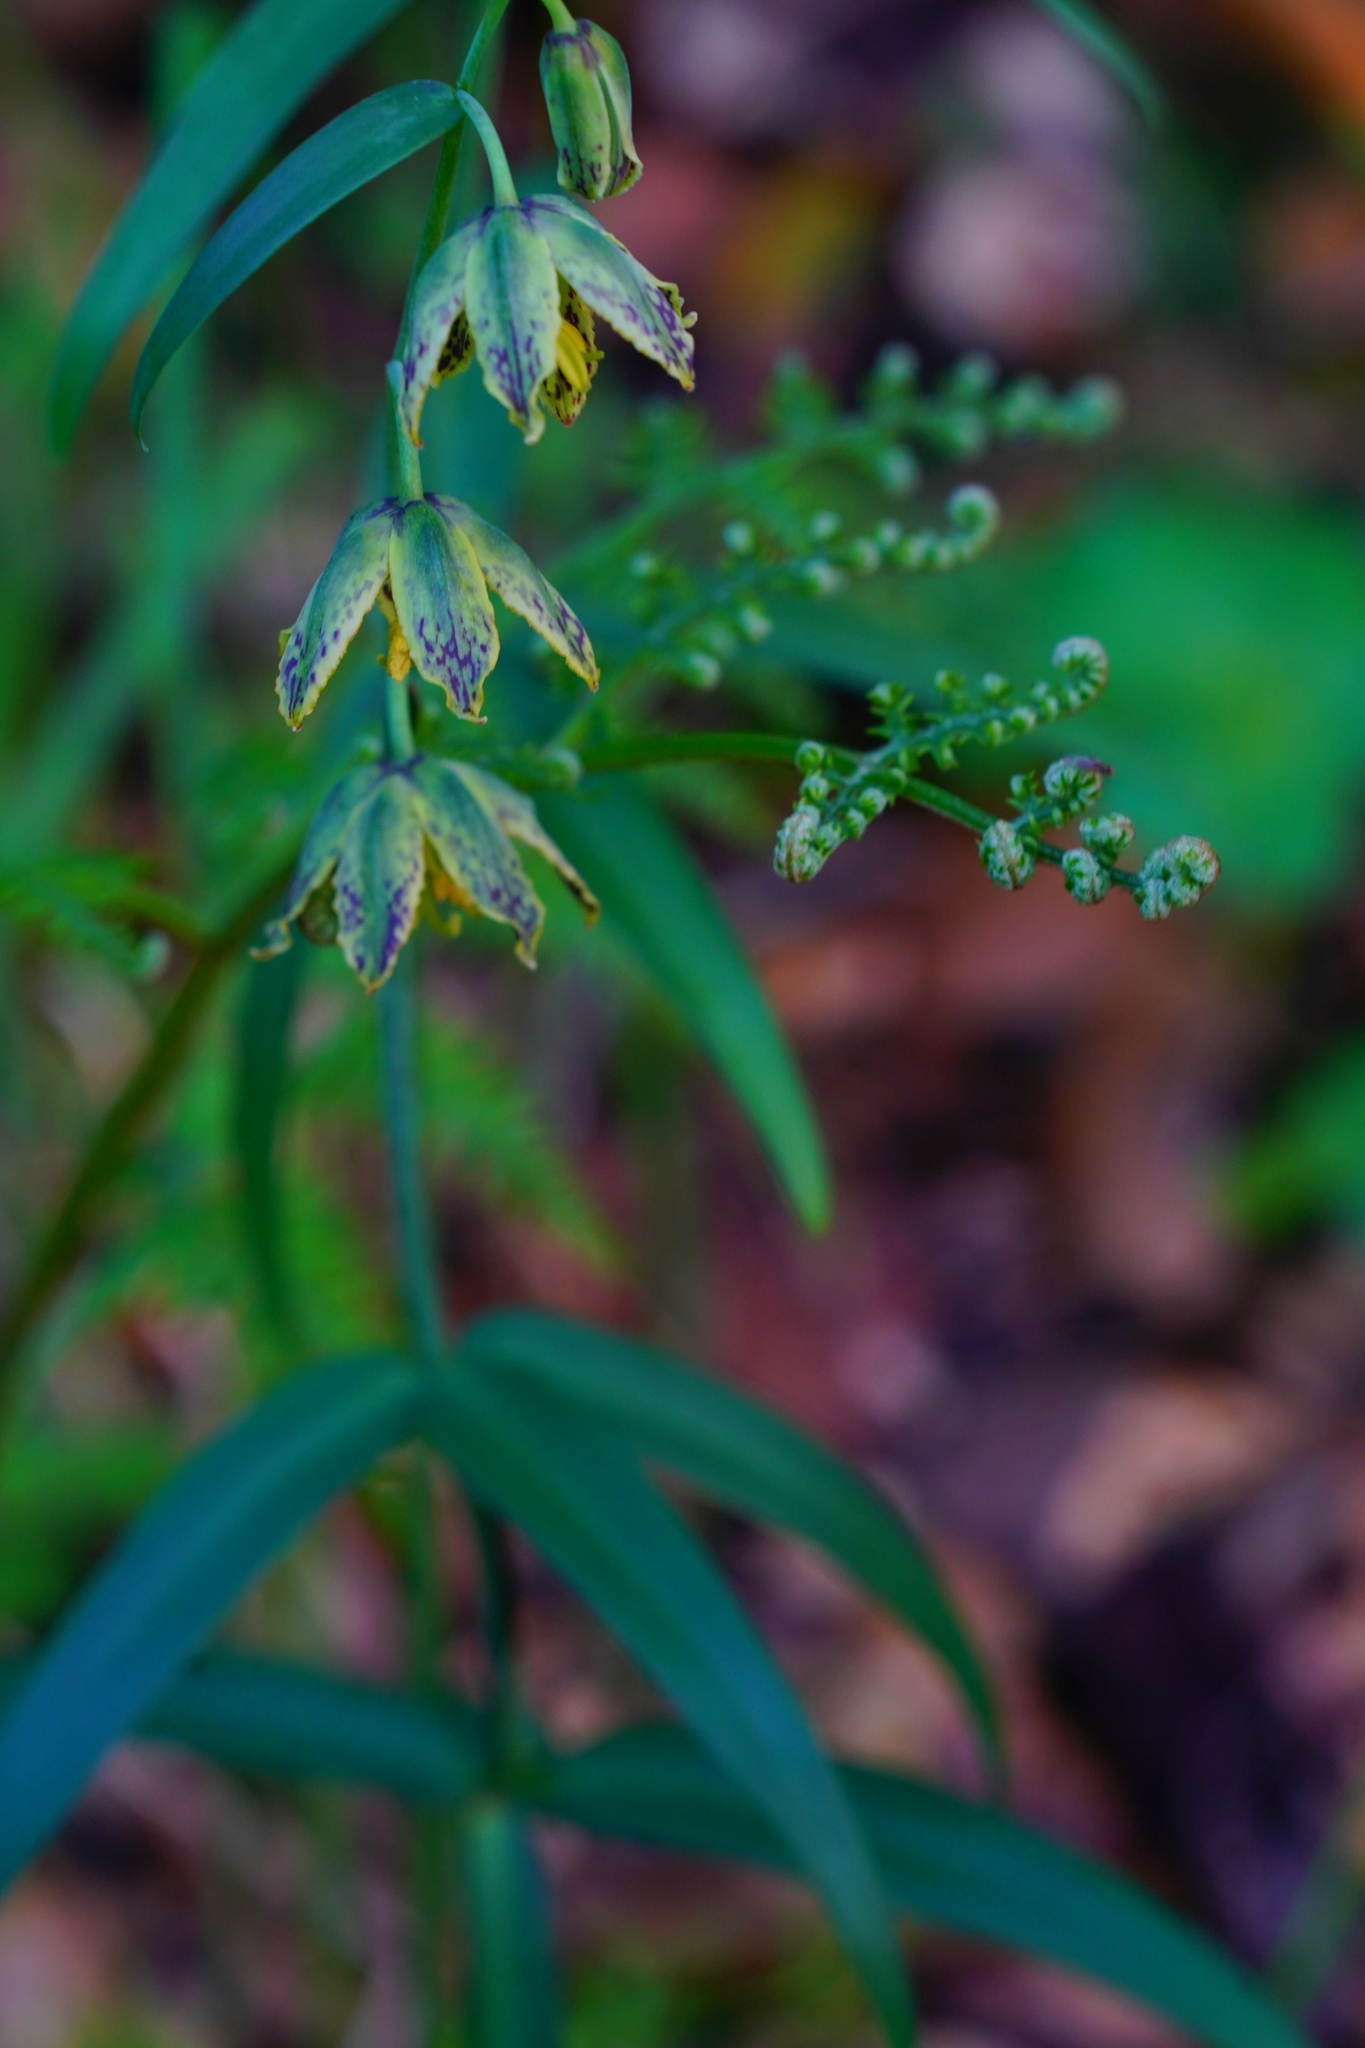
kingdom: Plantae
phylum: Tracheophyta
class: Liliopsida
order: Liliales
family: Liliaceae
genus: Fritillaria
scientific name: Fritillaria affinis
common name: Ojai fritillary
